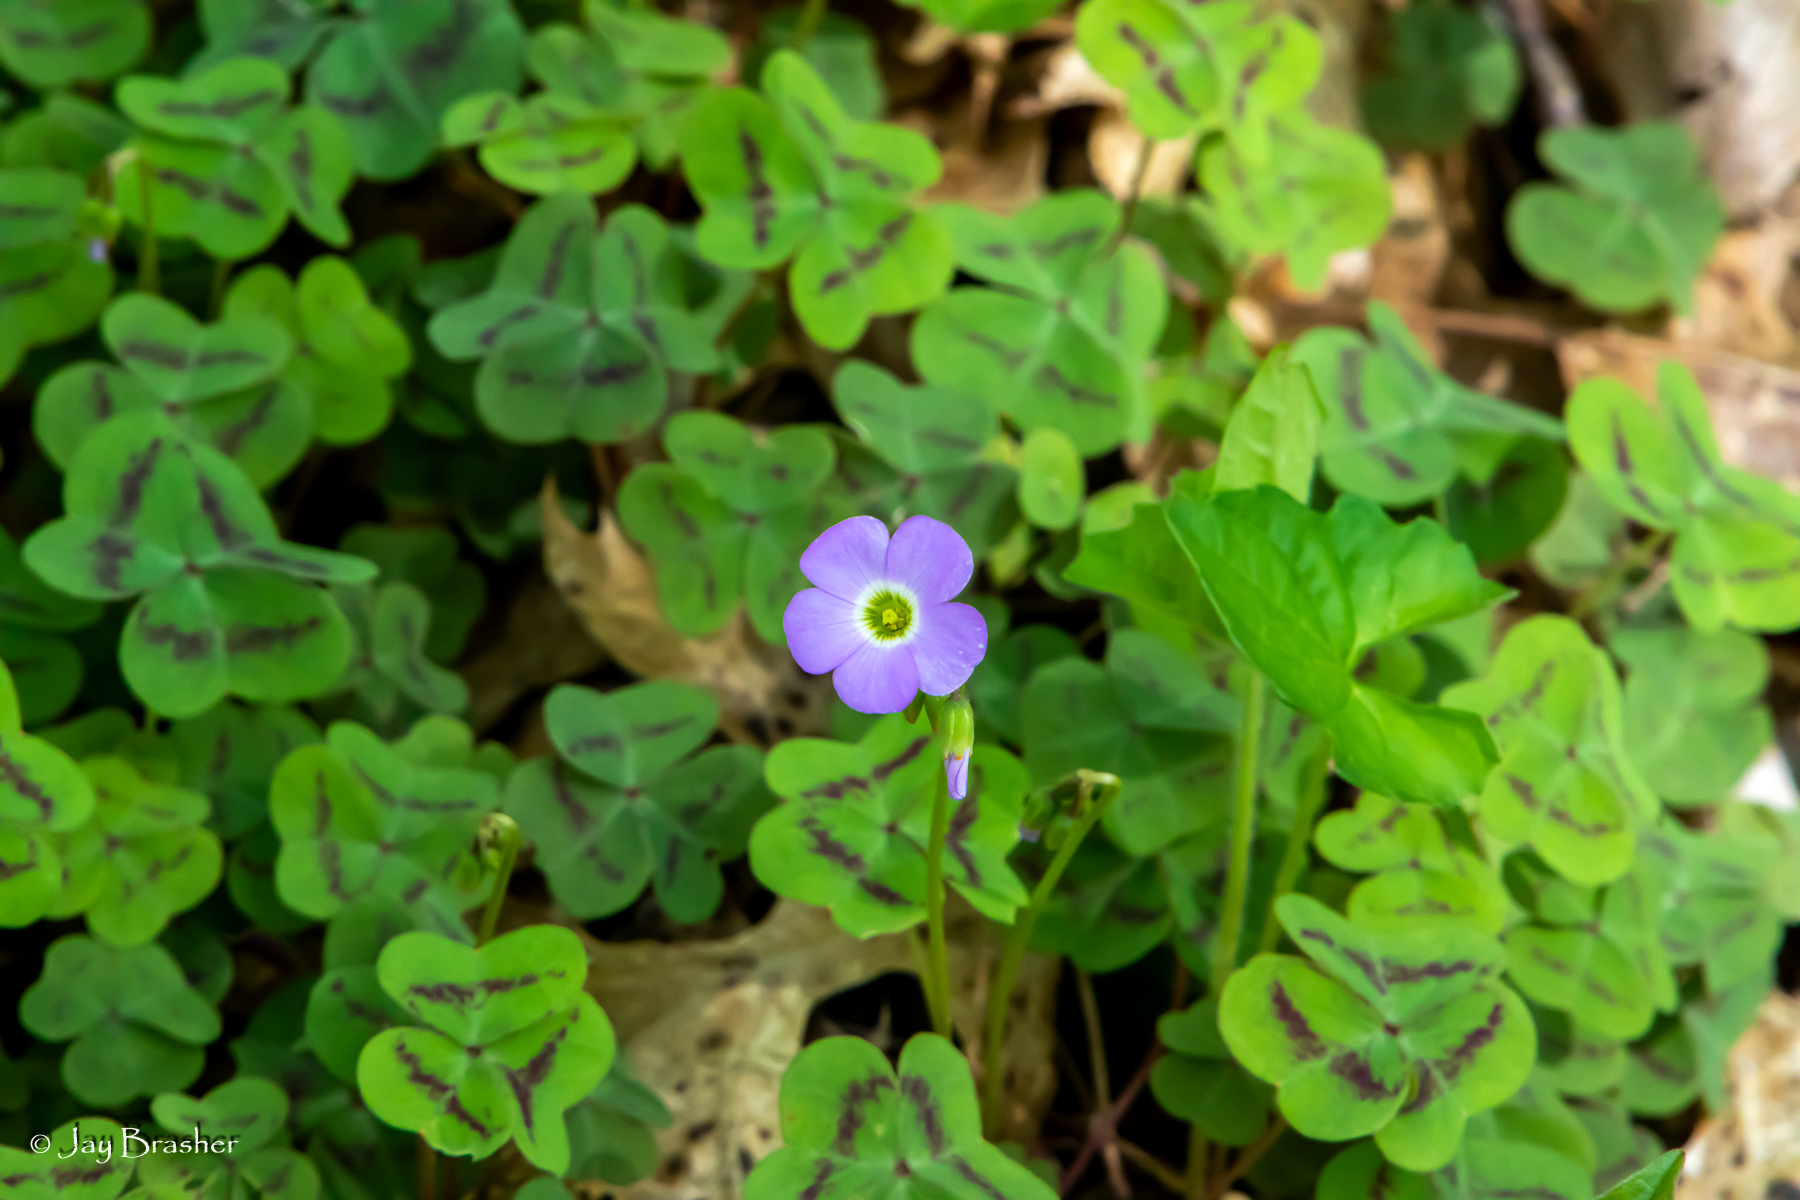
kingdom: Plantae
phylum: Tracheophyta
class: Magnoliopsida
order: Oxalidales
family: Oxalidaceae
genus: Oxalis
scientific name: Oxalis violacea
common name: Violet wood-sorrel
